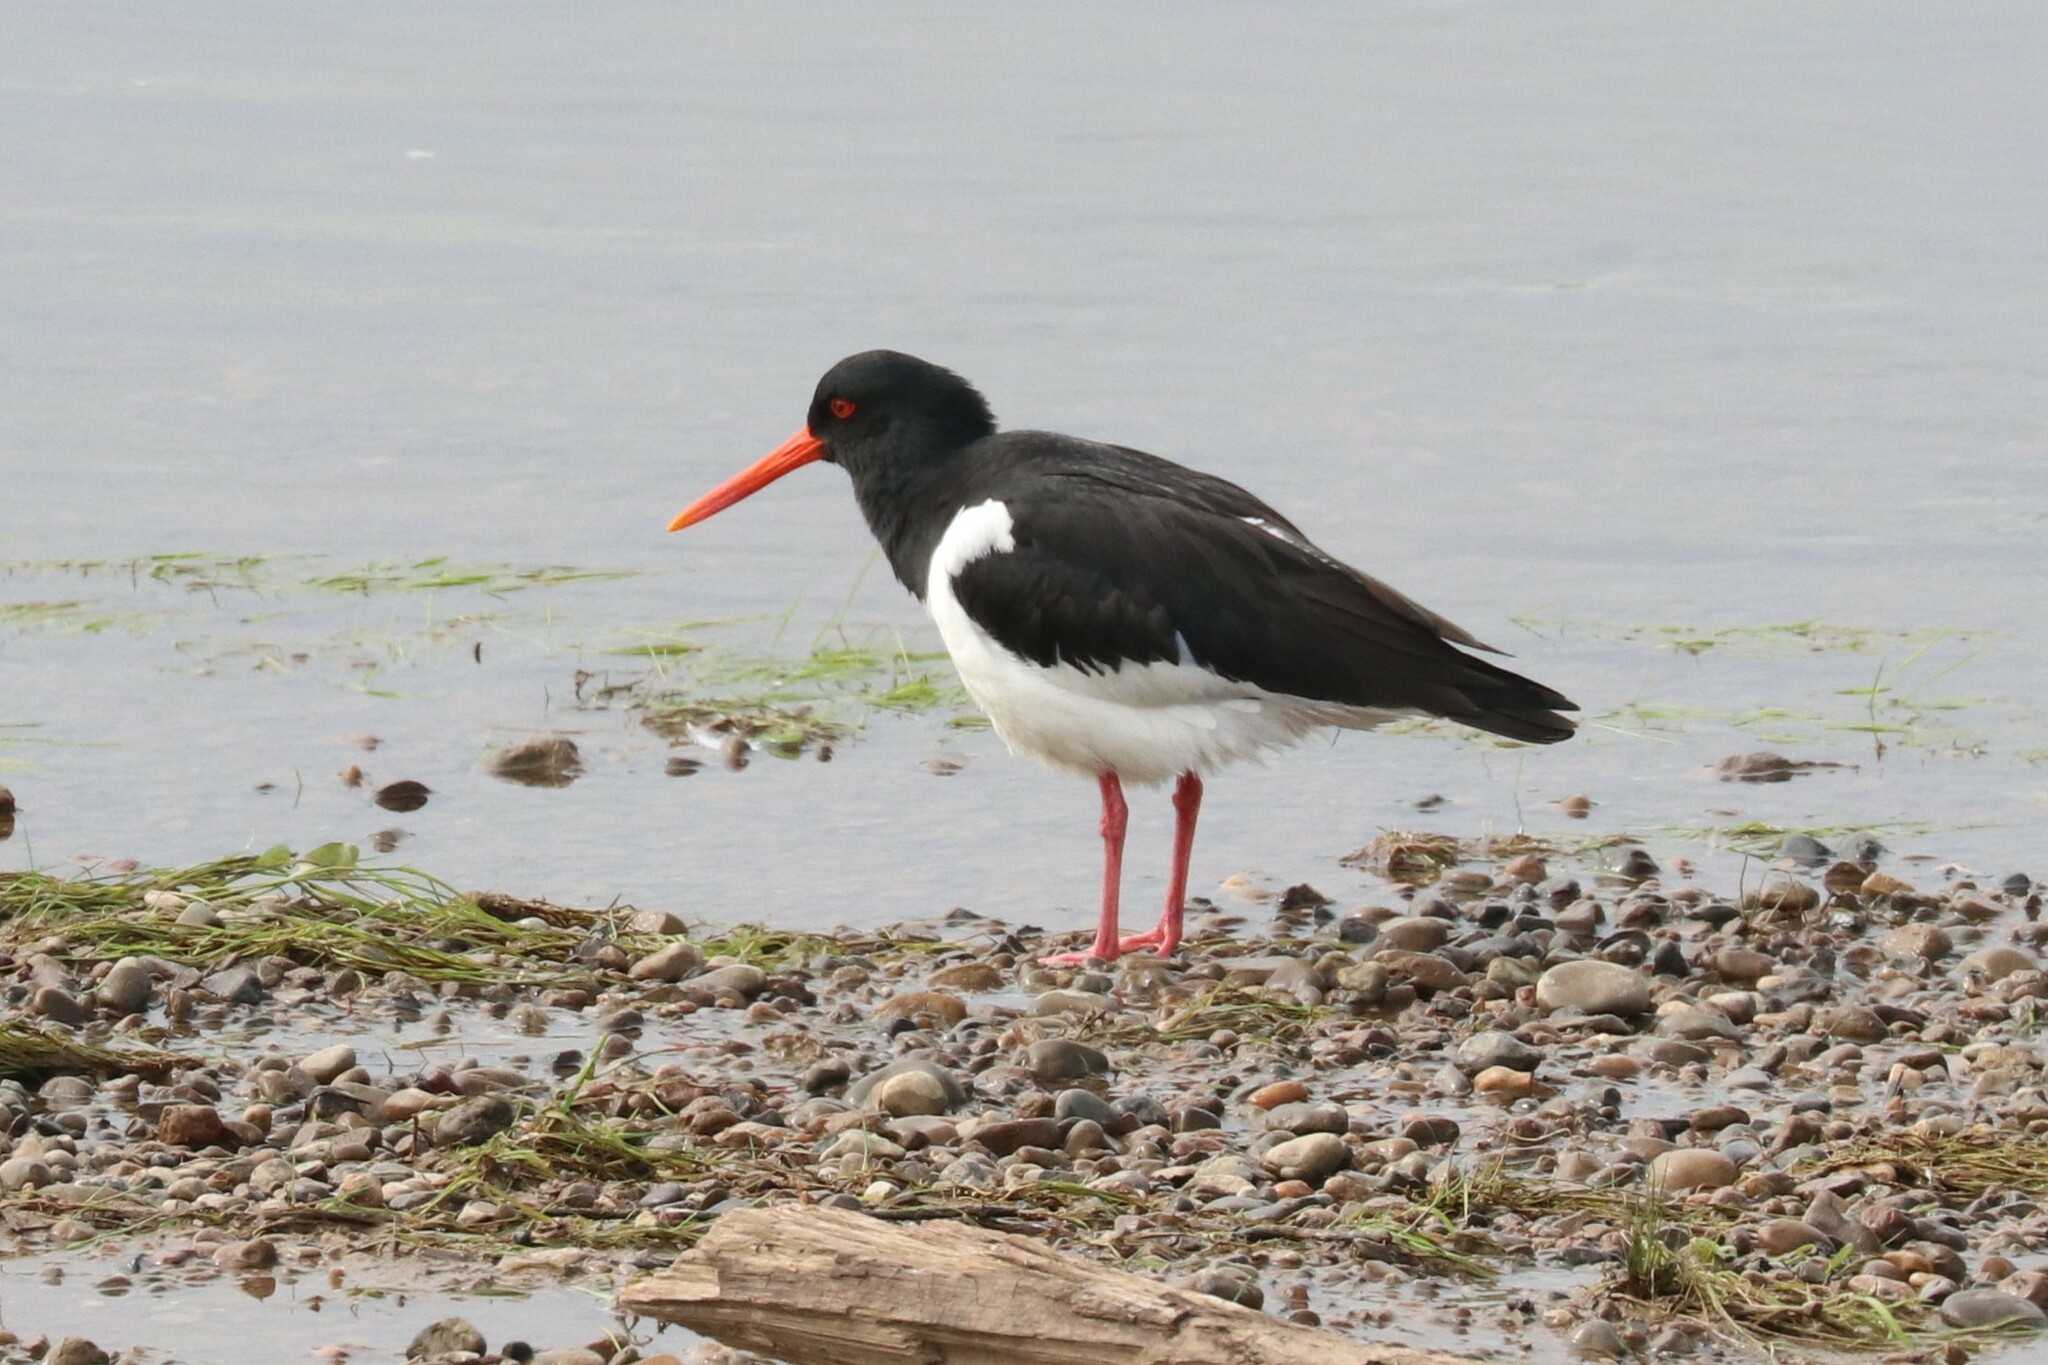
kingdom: Animalia
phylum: Chordata
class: Aves
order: Charadriiformes
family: Haematopodidae
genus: Haematopus
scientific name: Haematopus ostralegus
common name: Eurasian oystercatcher
